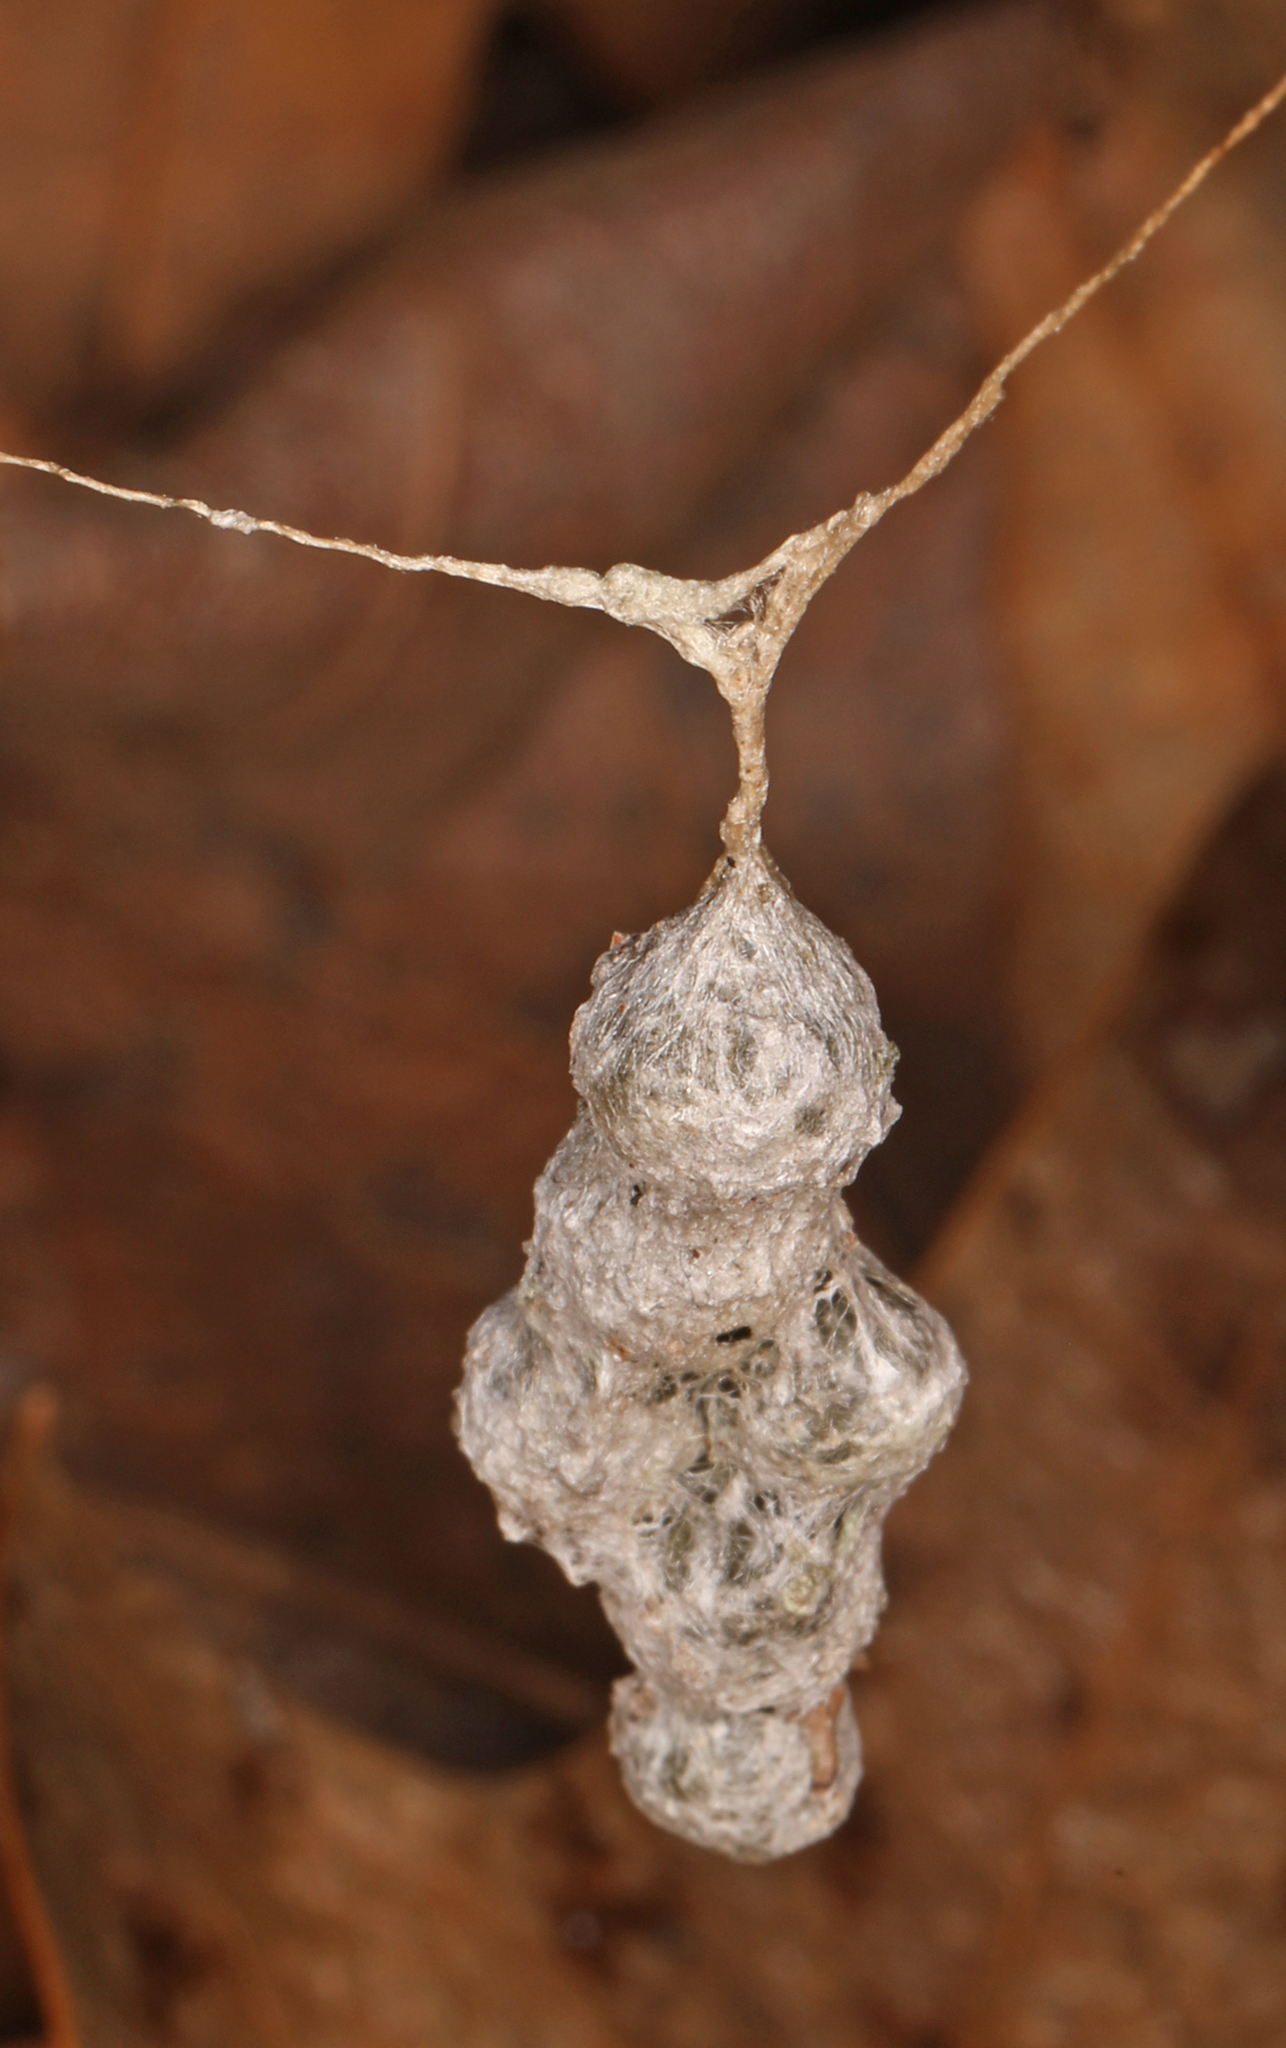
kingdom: Animalia
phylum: Arthropoda
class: Arachnida
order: Araneae
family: Araneidae
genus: Mecynogea
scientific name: Mecynogea lemniscata
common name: Orb weavers
